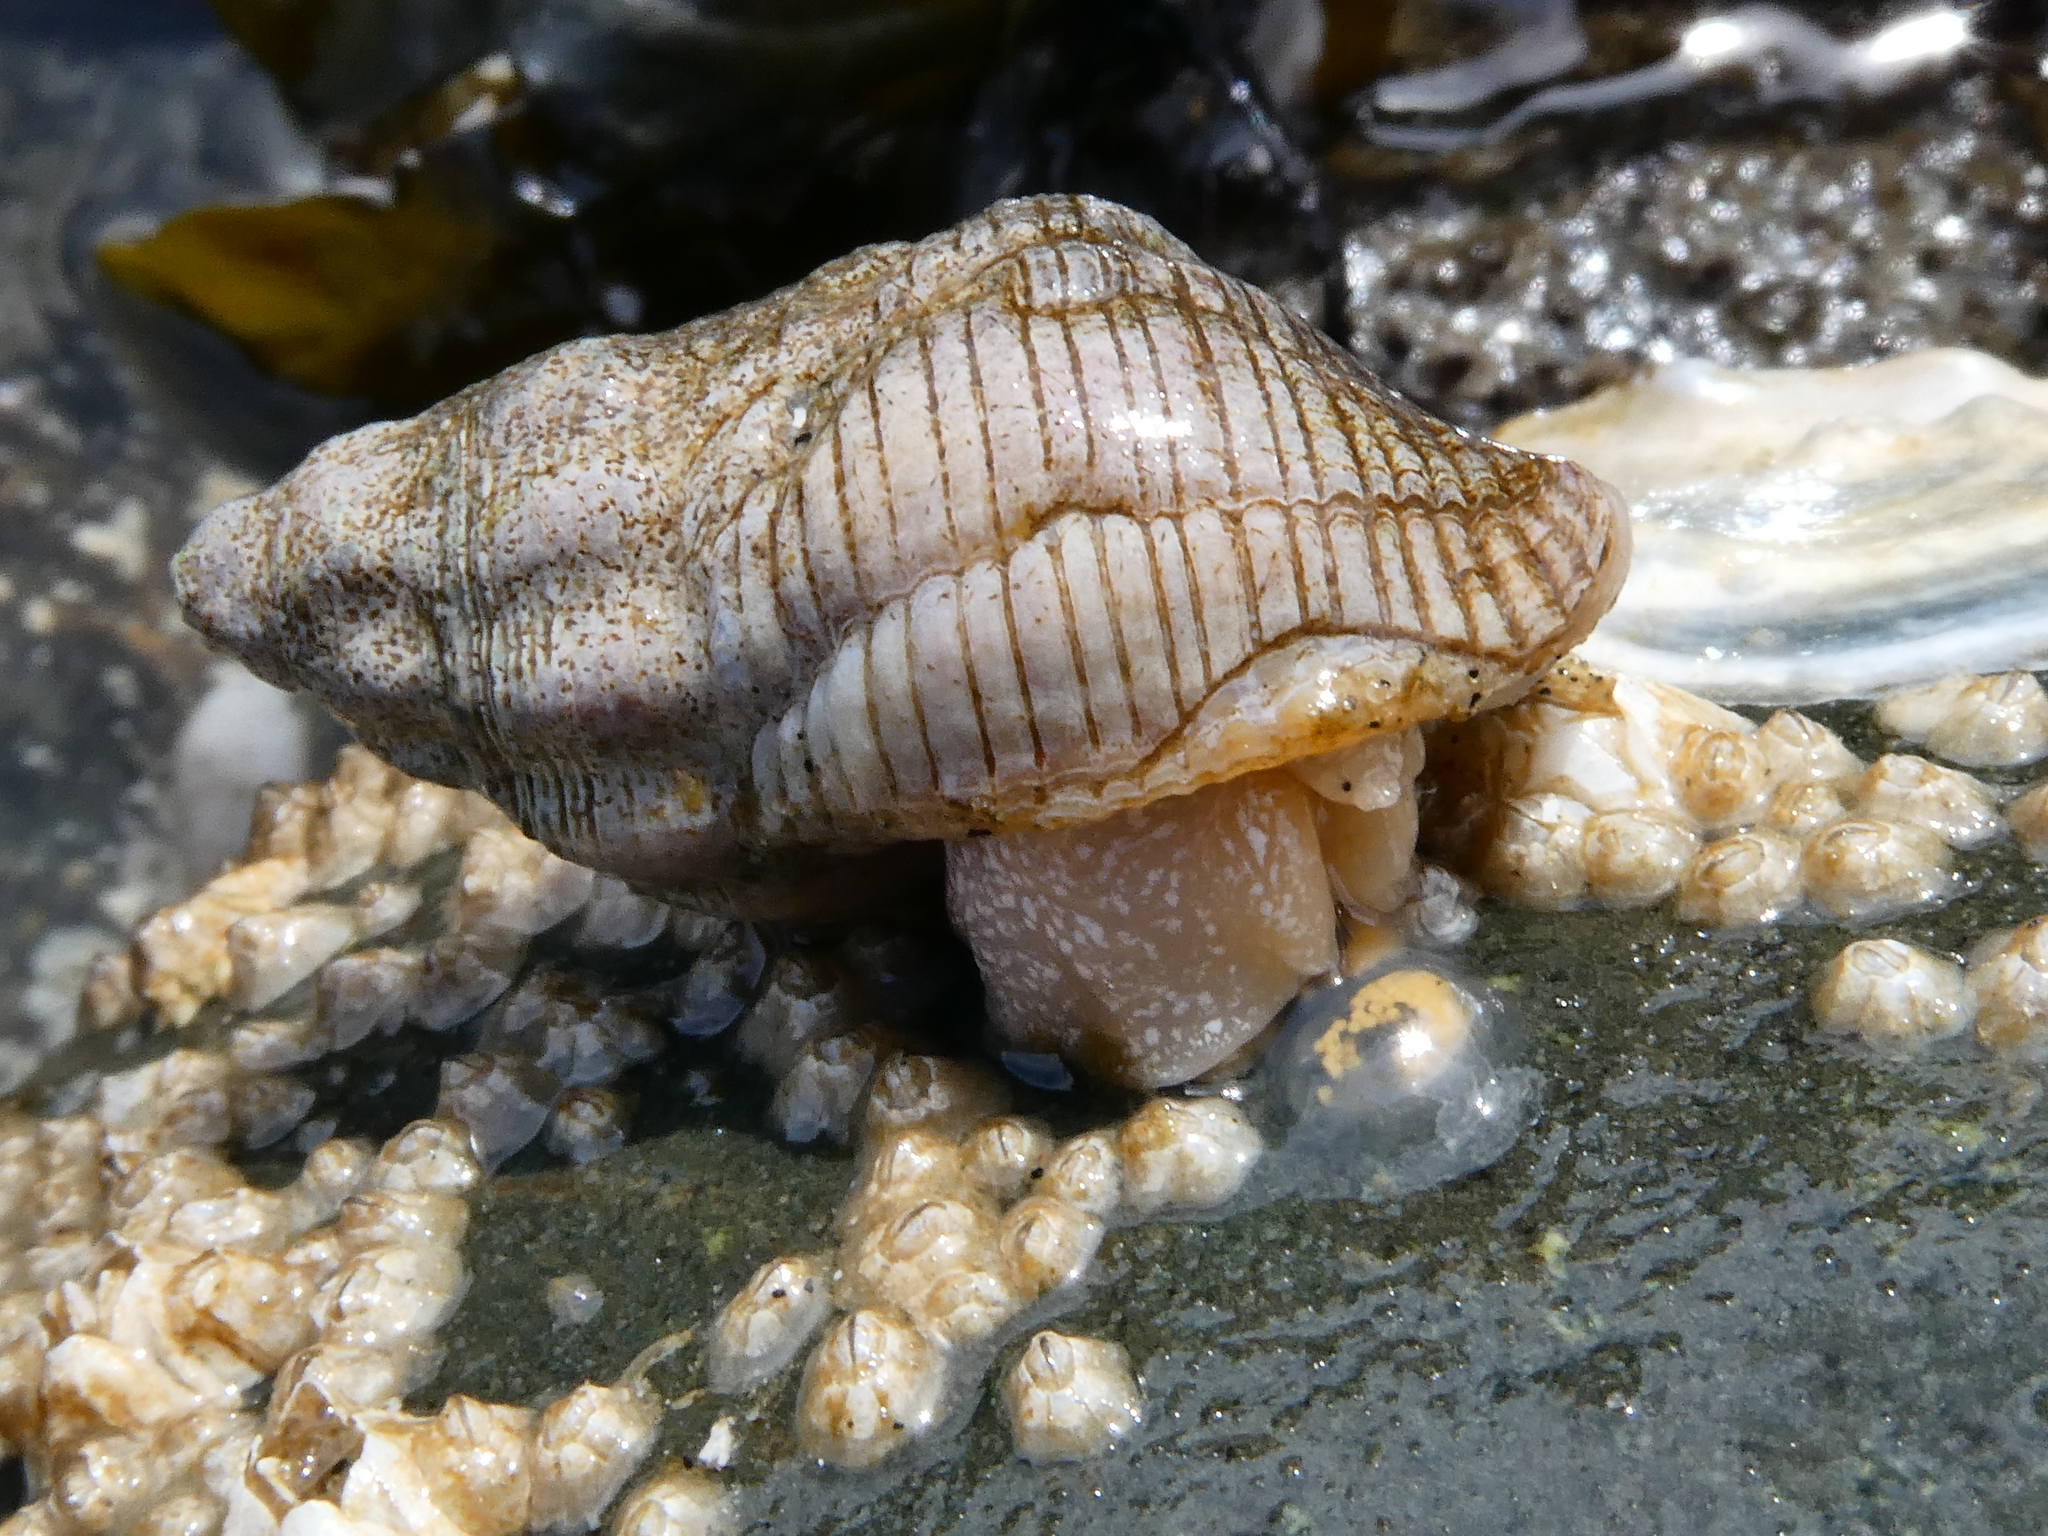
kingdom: Animalia
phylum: Mollusca
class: Gastropoda
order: Neogastropoda
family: Tudiclidae
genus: Lirabuccinum
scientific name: Lirabuccinum dirum
